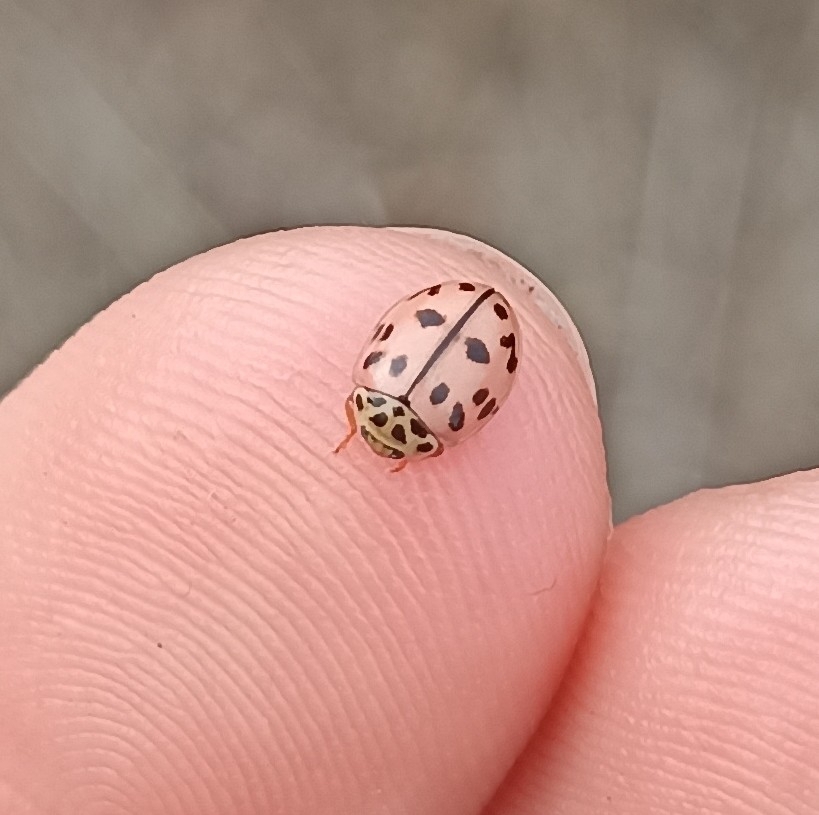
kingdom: Animalia
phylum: Arthropoda
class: Insecta
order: Coleoptera
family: Coccinellidae
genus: Oenopia
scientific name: Oenopia conglobata
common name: Ladybird beetle
